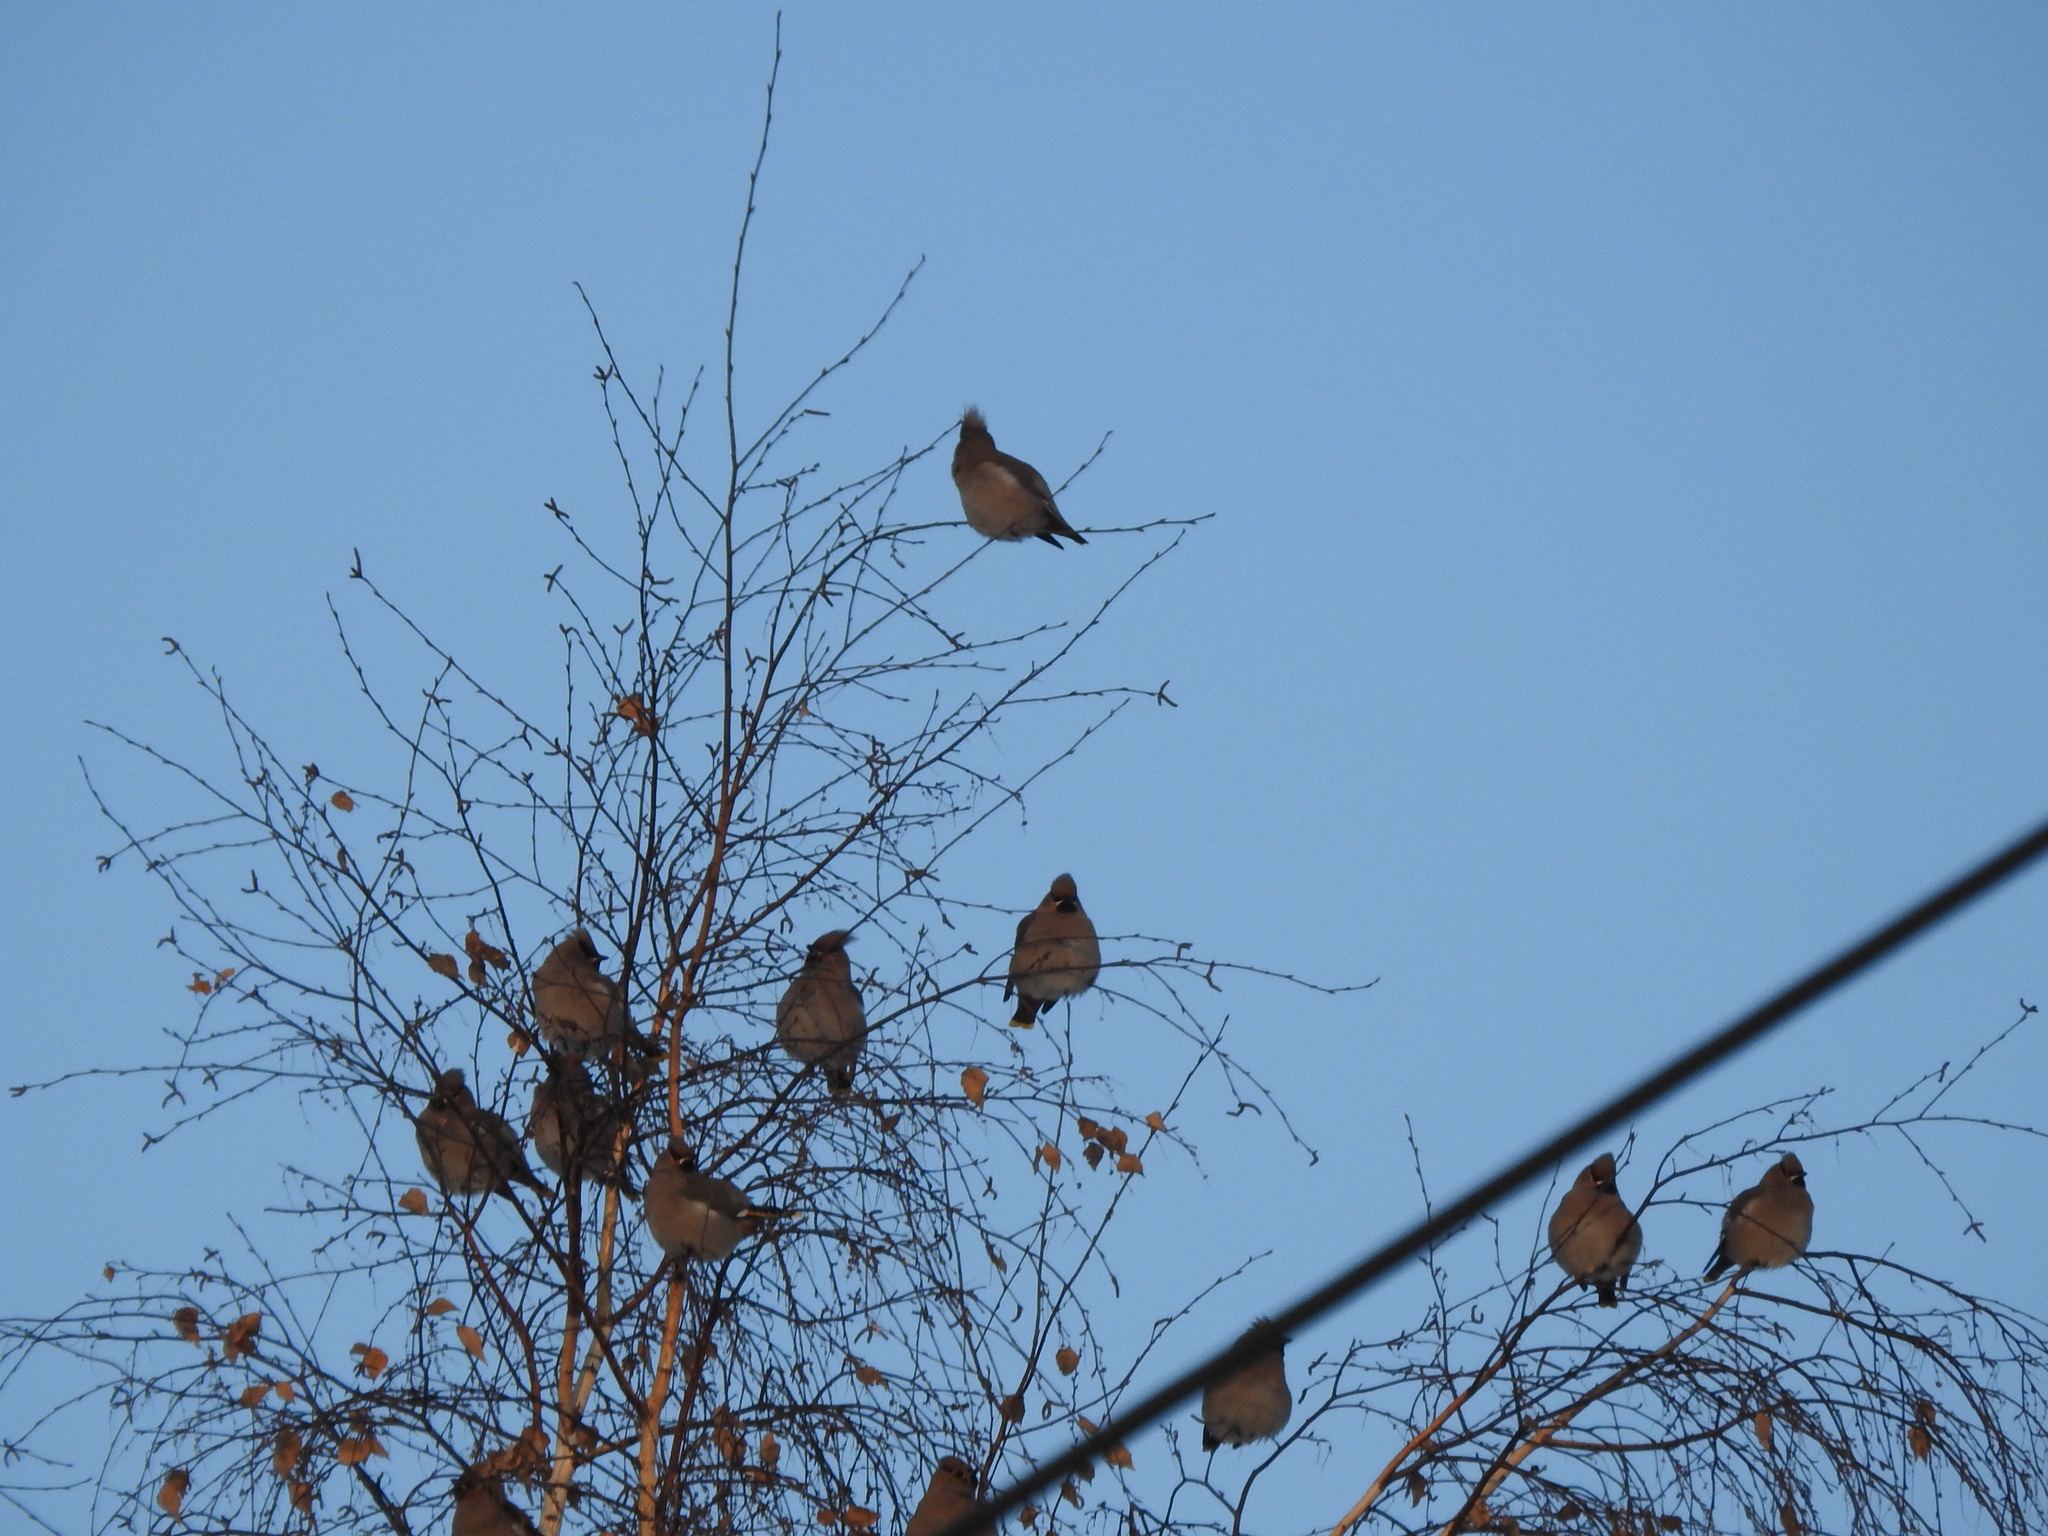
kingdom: Animalia
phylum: Chordata
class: Aves
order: Passeriformes
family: Bombycillidae
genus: Bombycilla
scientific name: Bombycilla garrulus
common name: Bohemian waxwing
